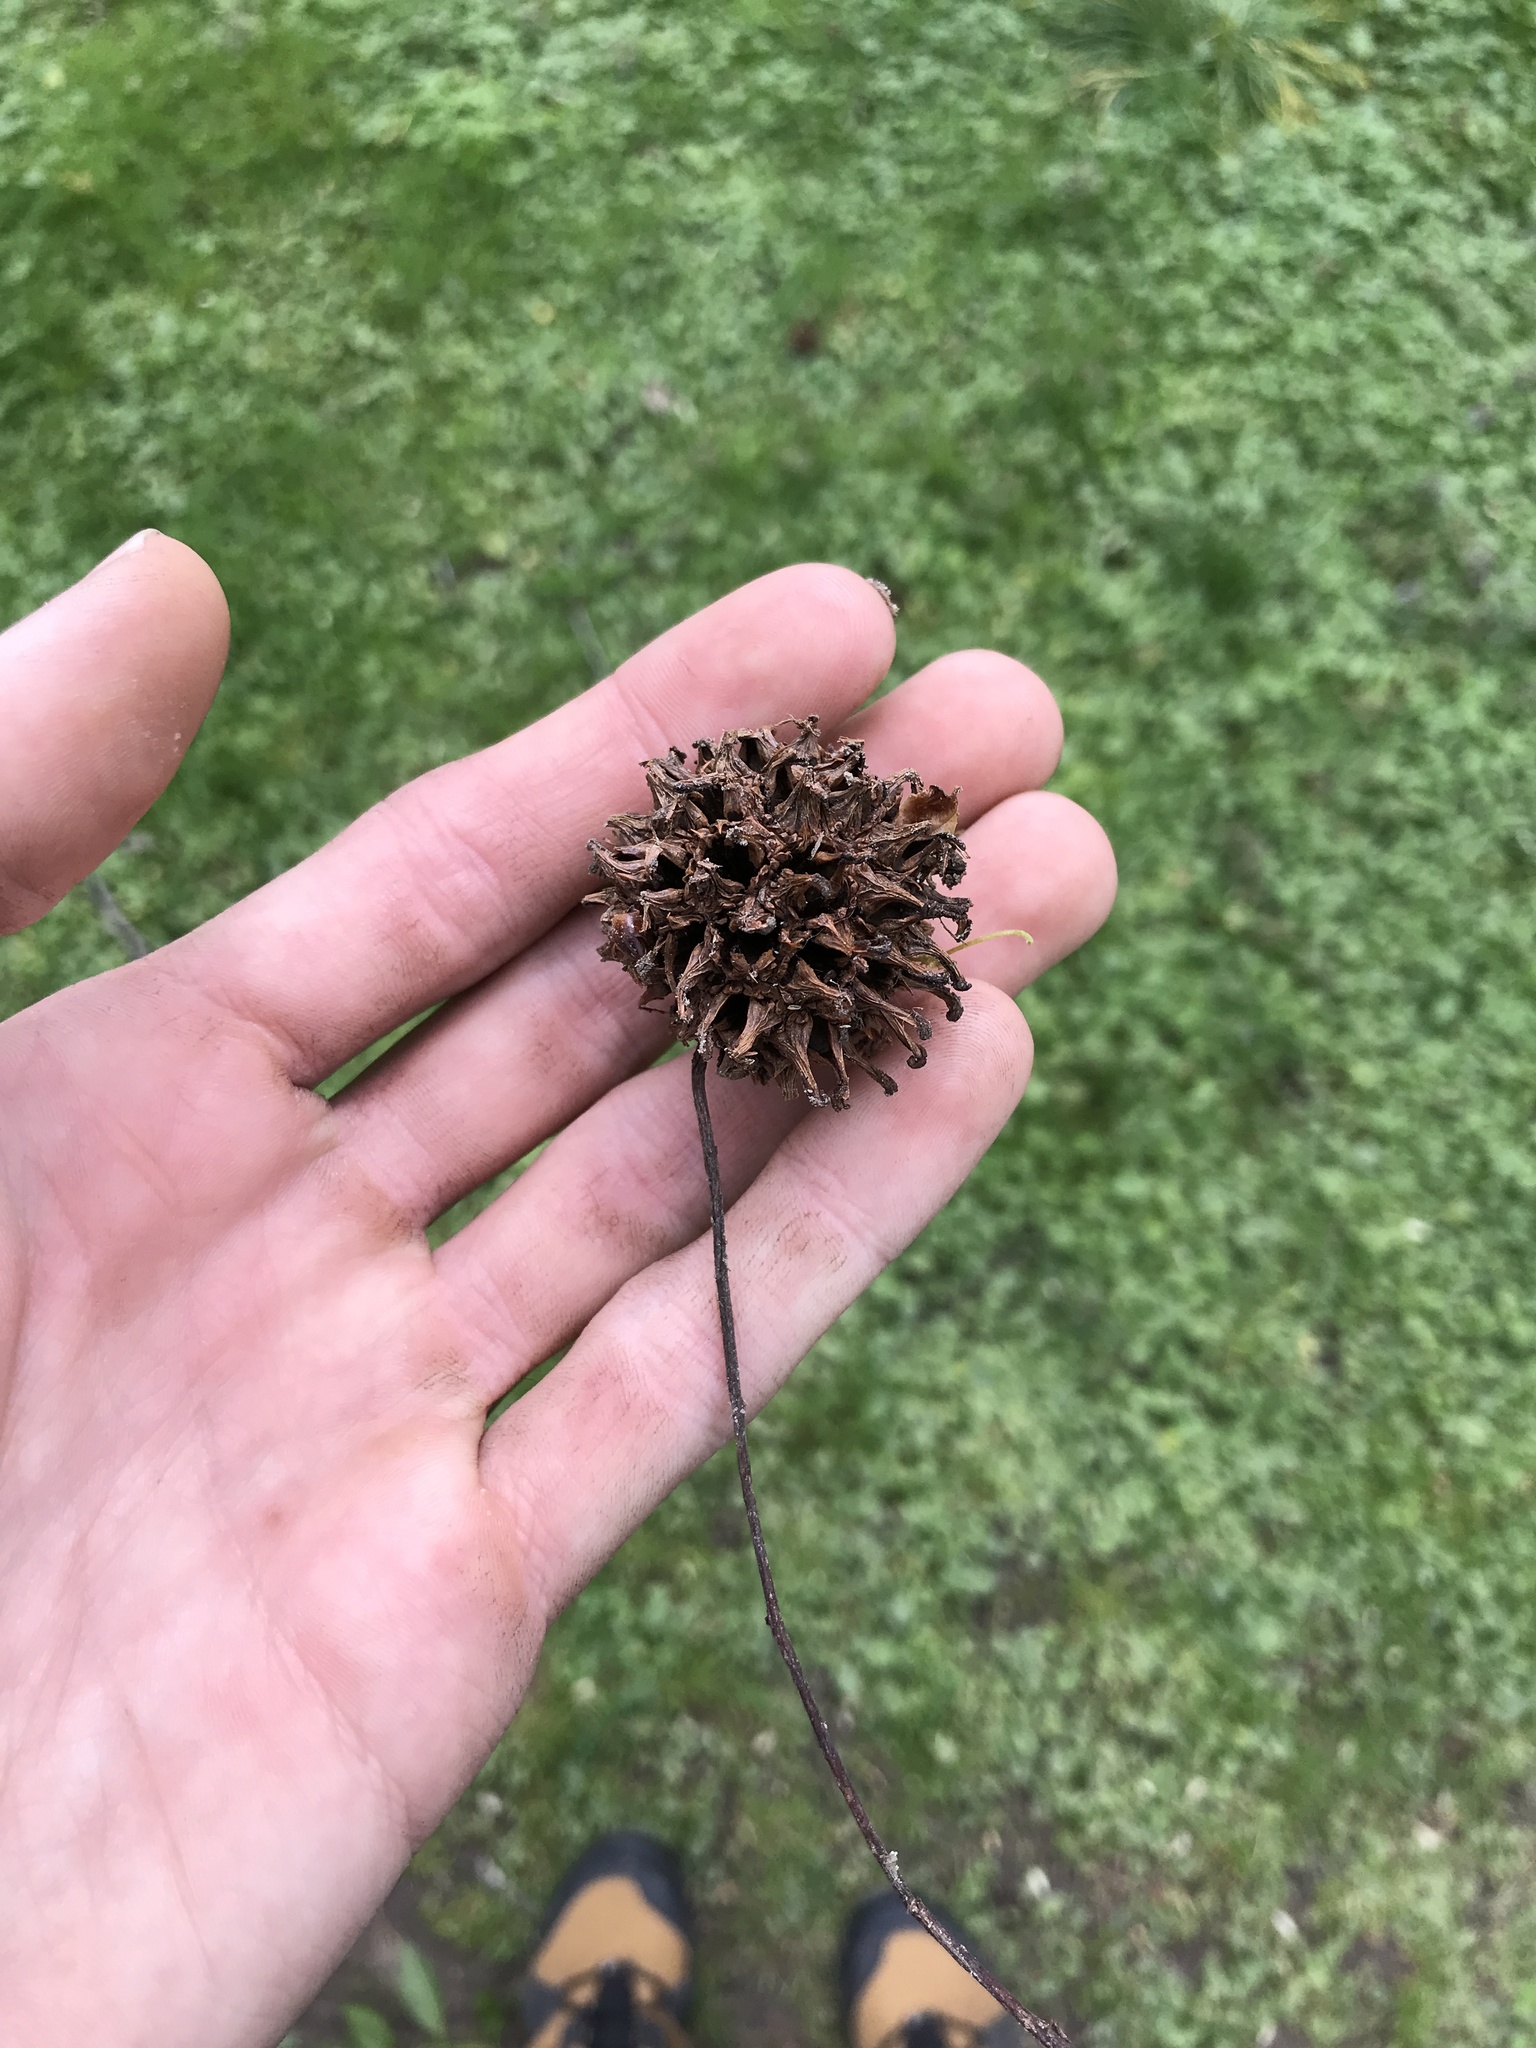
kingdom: Plantae
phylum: Tracheophyta
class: Magnoliopsida
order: Saxifragales
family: Altingiaceae
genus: Liquidambar
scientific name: Liquidambar styraciflua
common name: Sweet gum
